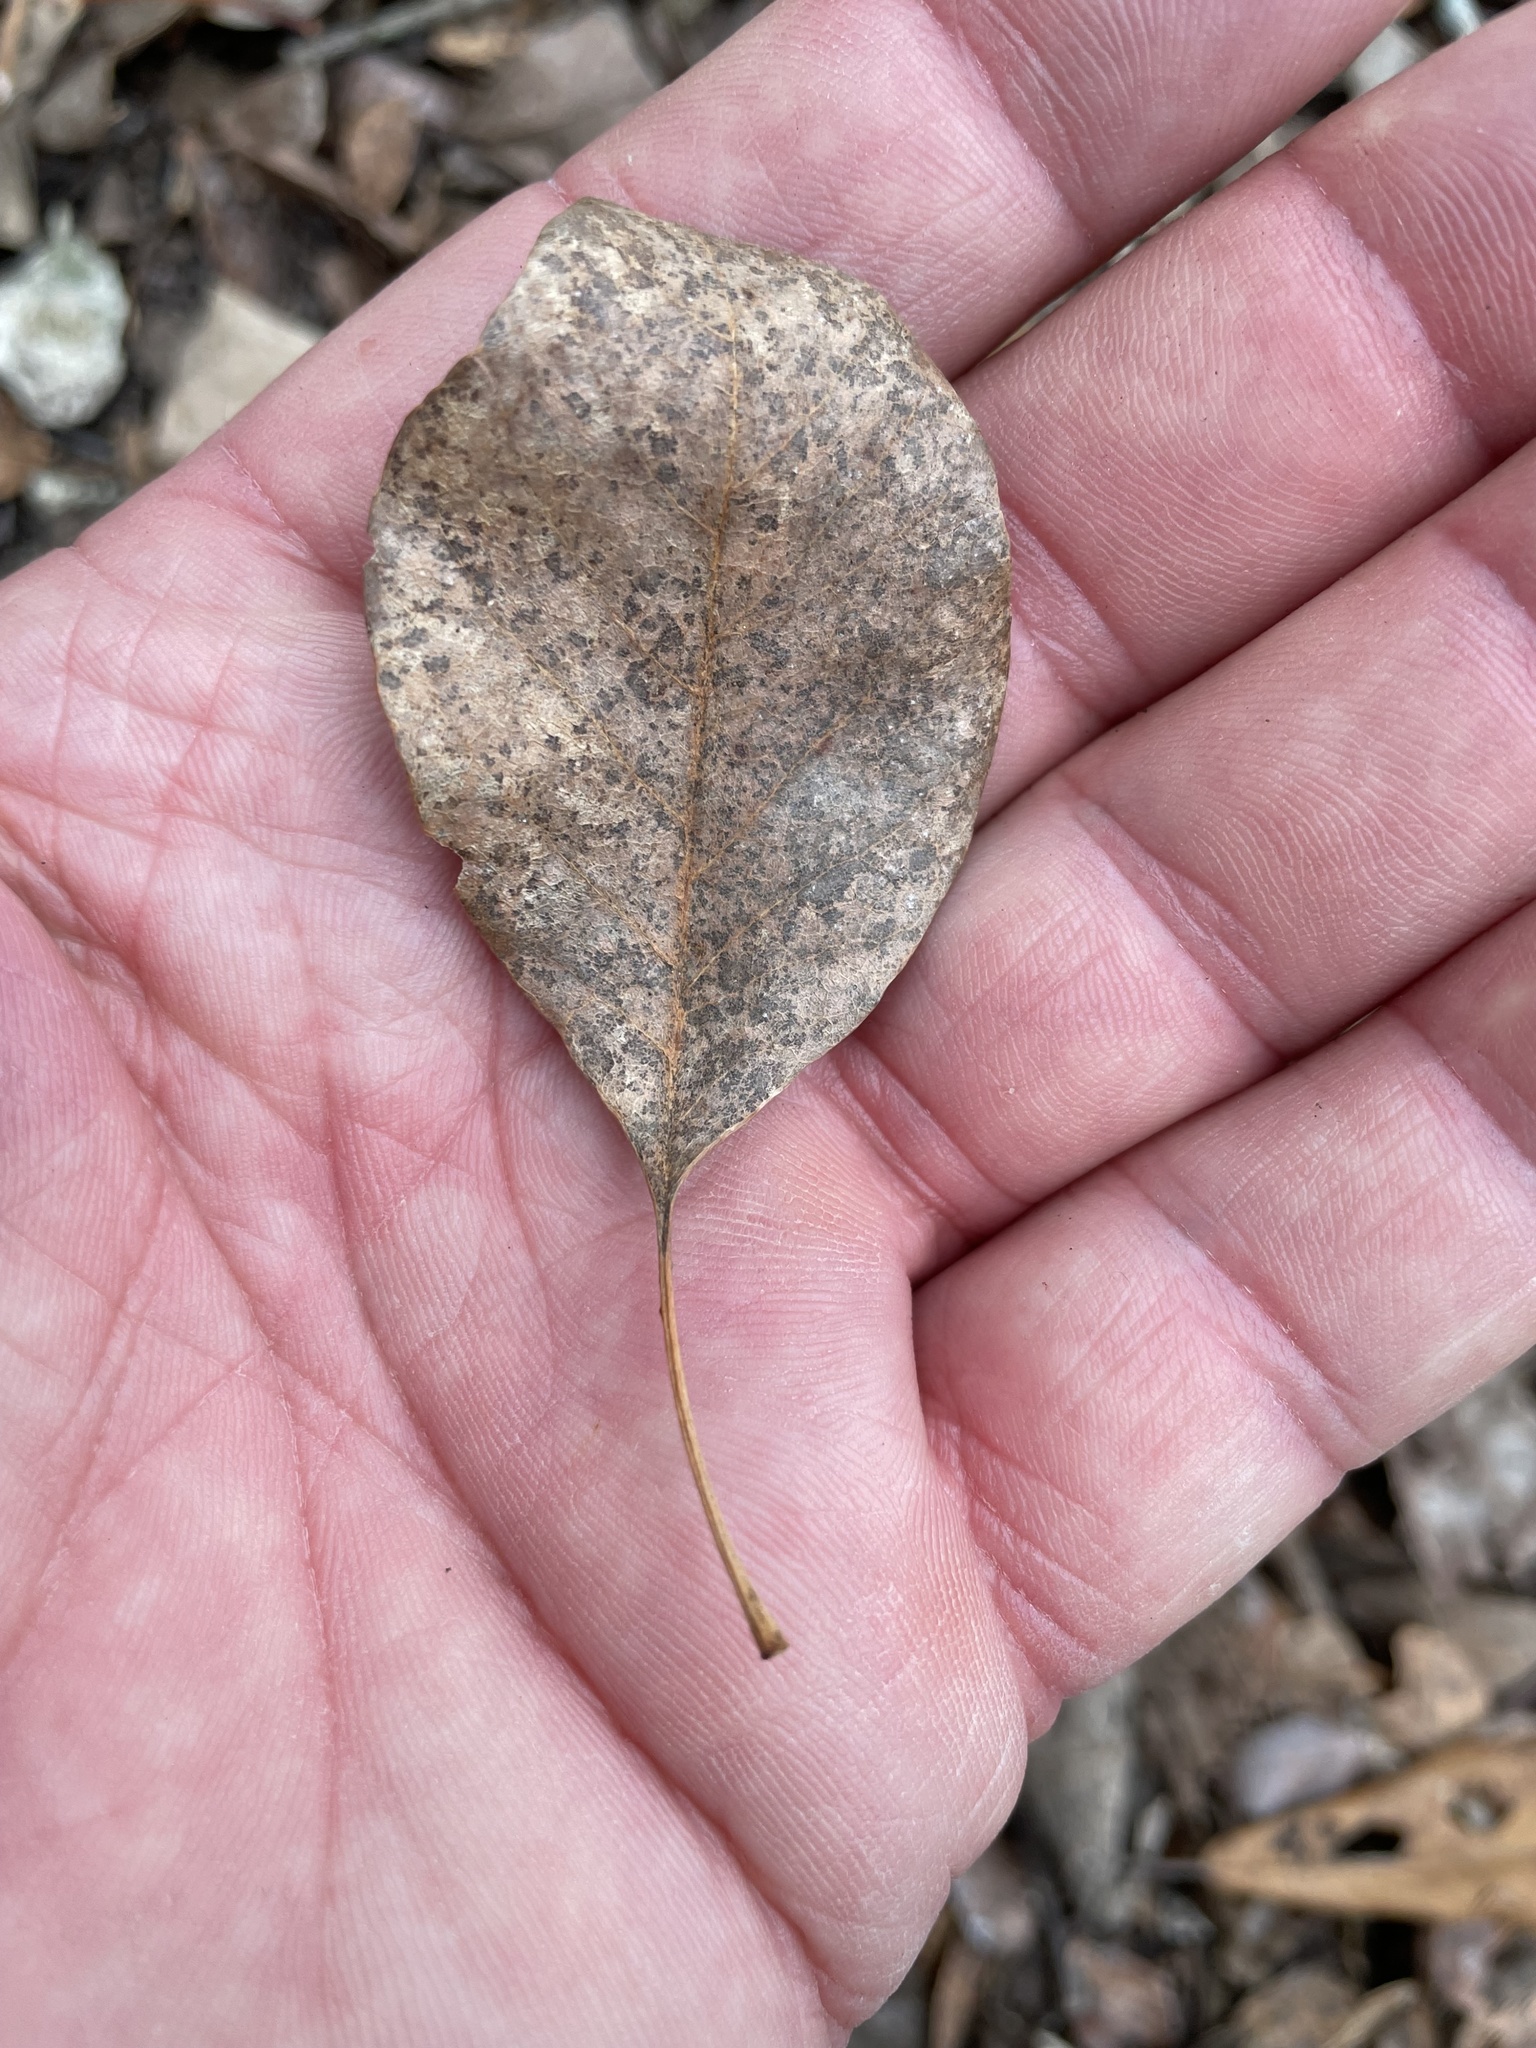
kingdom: Plantae
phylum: Tracheophyta
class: Magnoliopsida
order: Rosales
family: Ulmaceae
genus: Ulmus
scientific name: Ulmus crassifolia
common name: Basket elm
